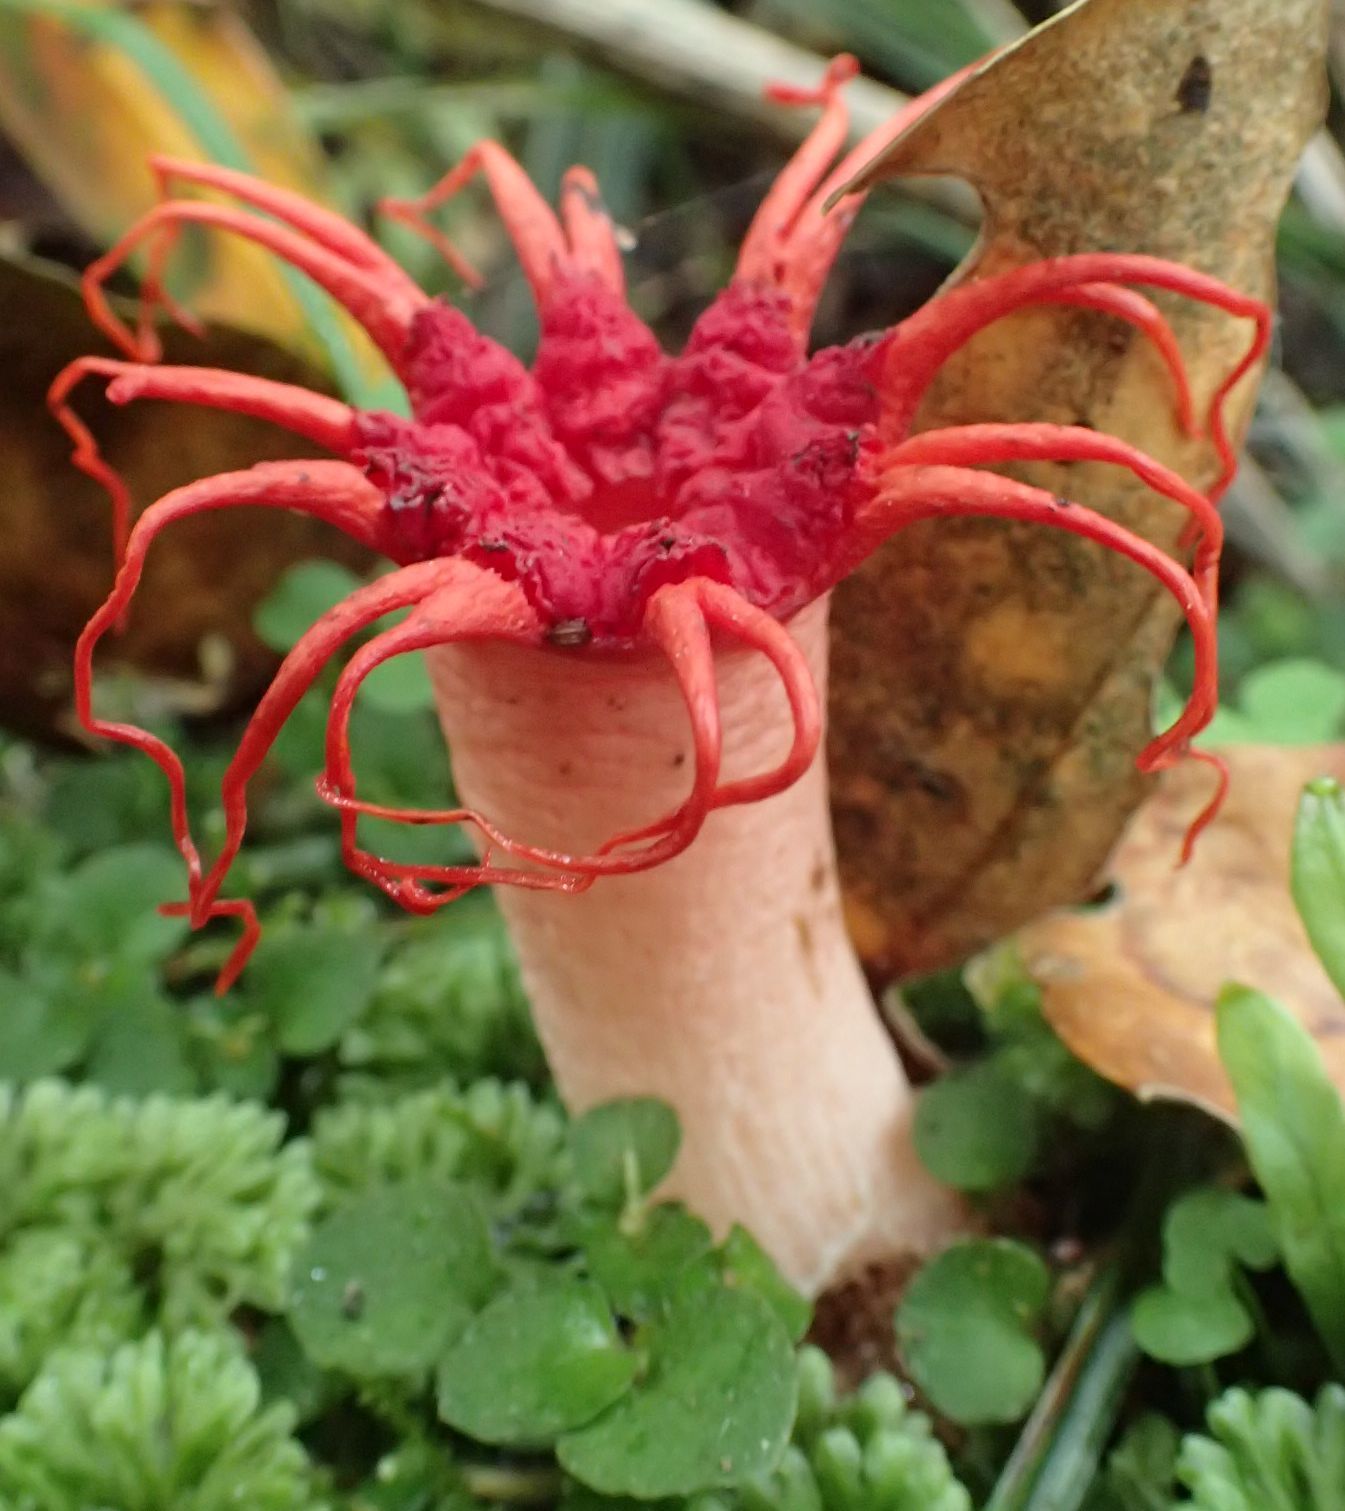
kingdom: Fungi
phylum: Basidiomycota
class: Agaricomycetes
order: Phallales
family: Phallaceae
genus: Aseroe
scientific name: Aseroe rubra
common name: Starfish fungus
